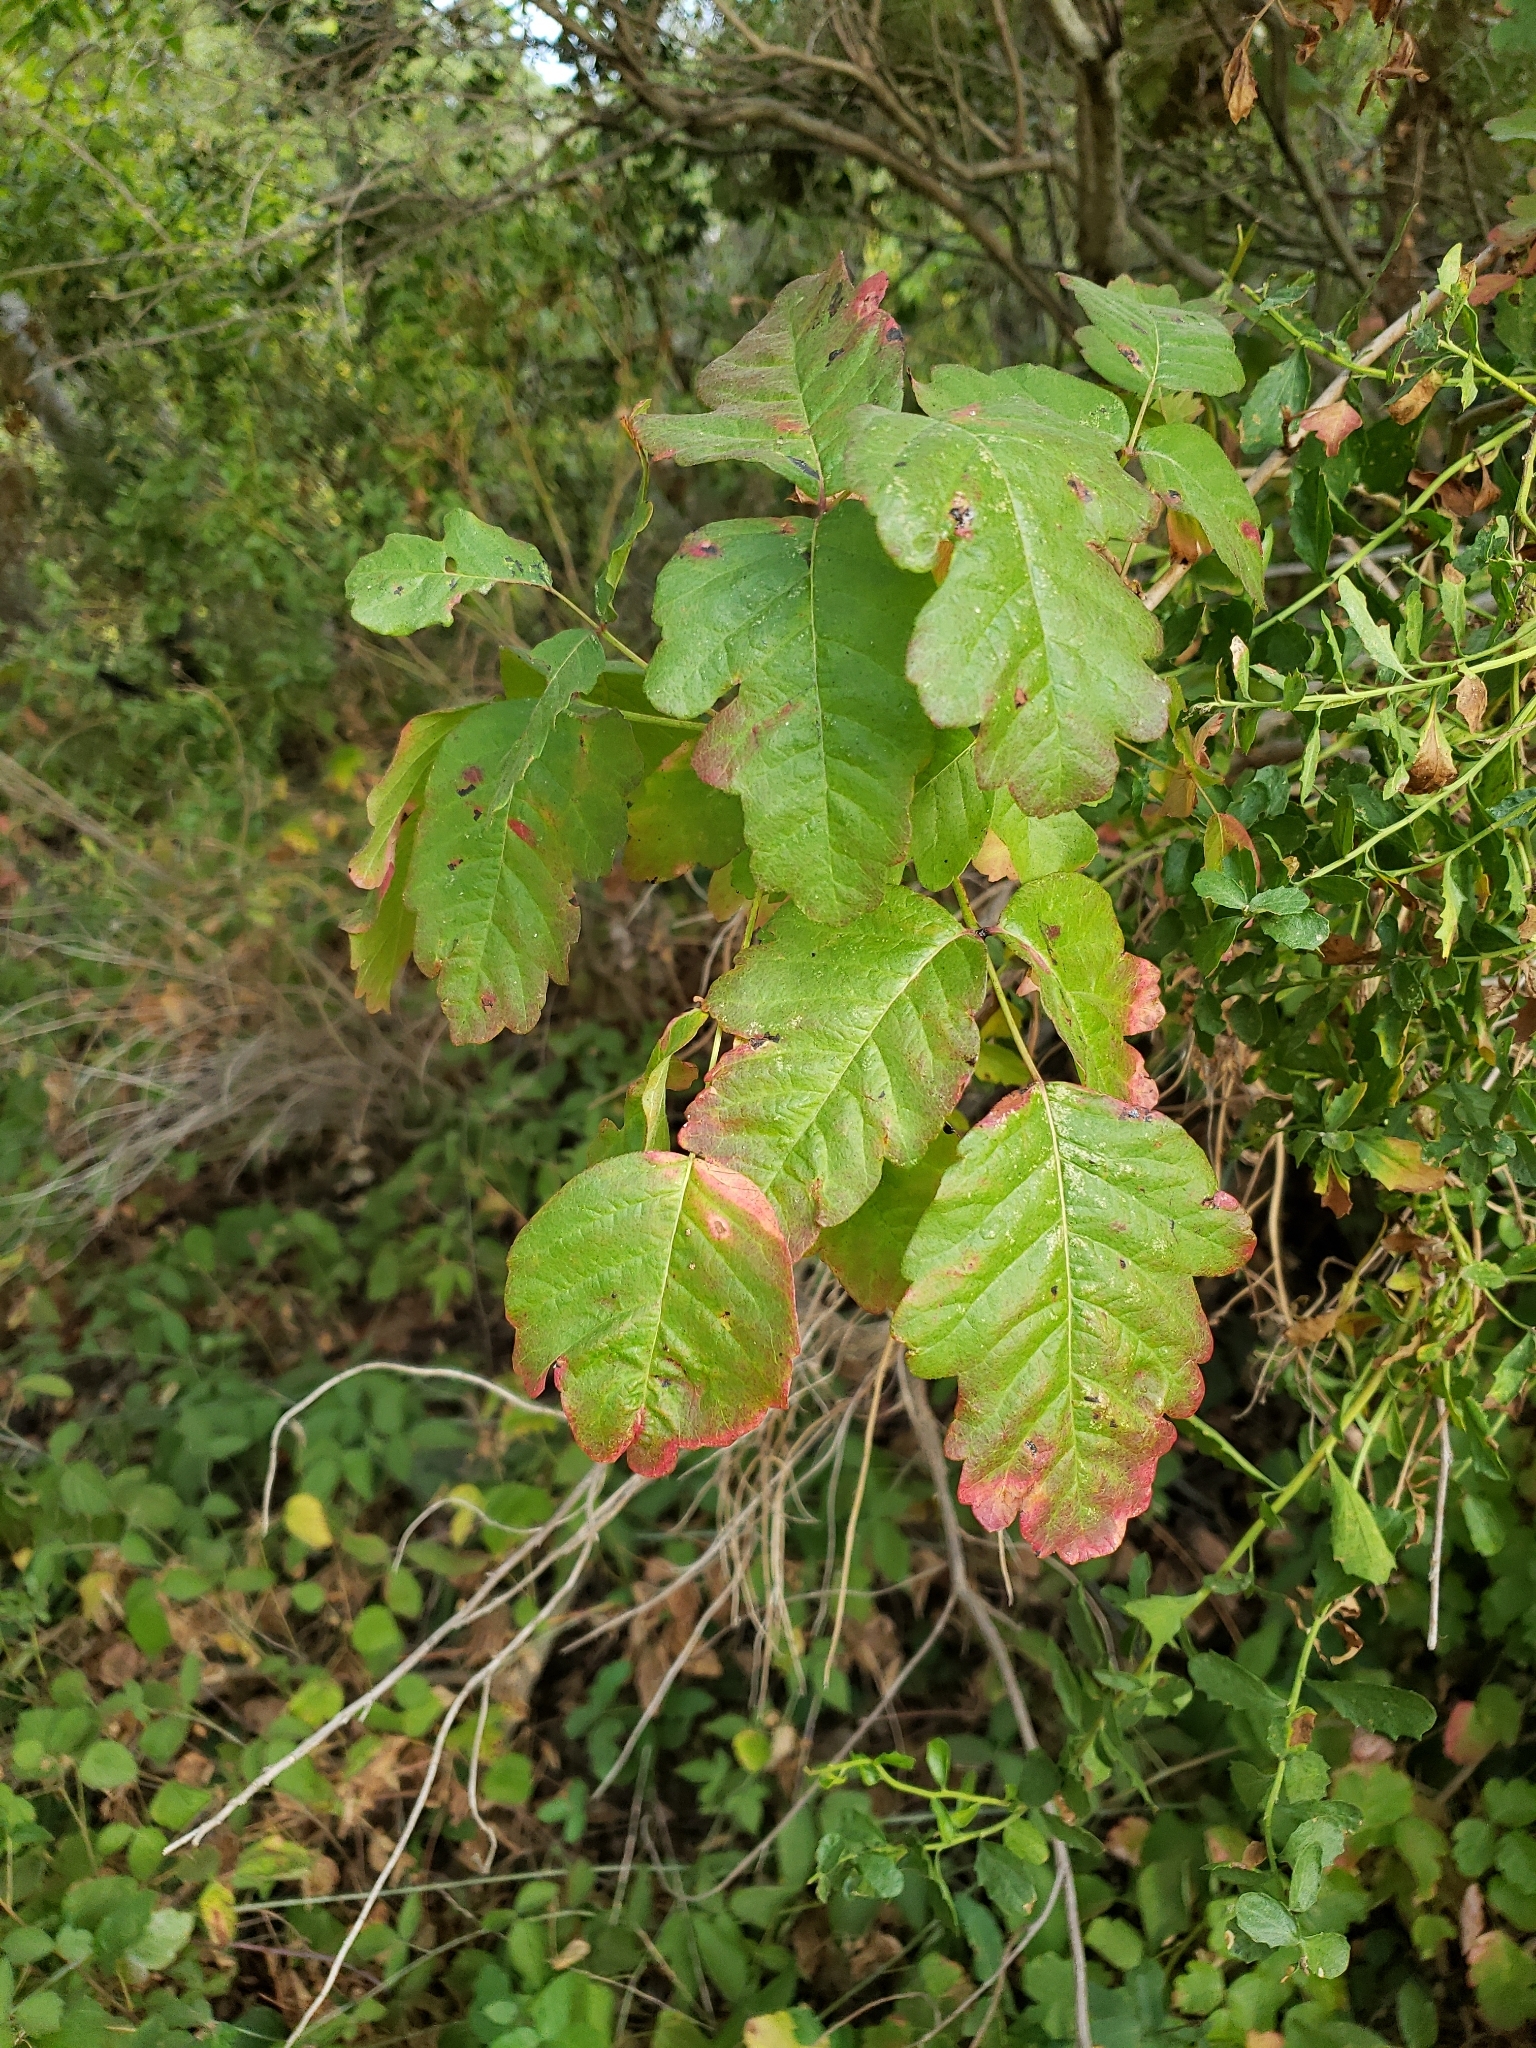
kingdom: Plantae
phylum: Tracheophyta
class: Magnoliopsida
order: Sapindales
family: Anacardiaceae
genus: Toxicodendron
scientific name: Toxicodendron diversilobum
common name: Pacific poison-oak
